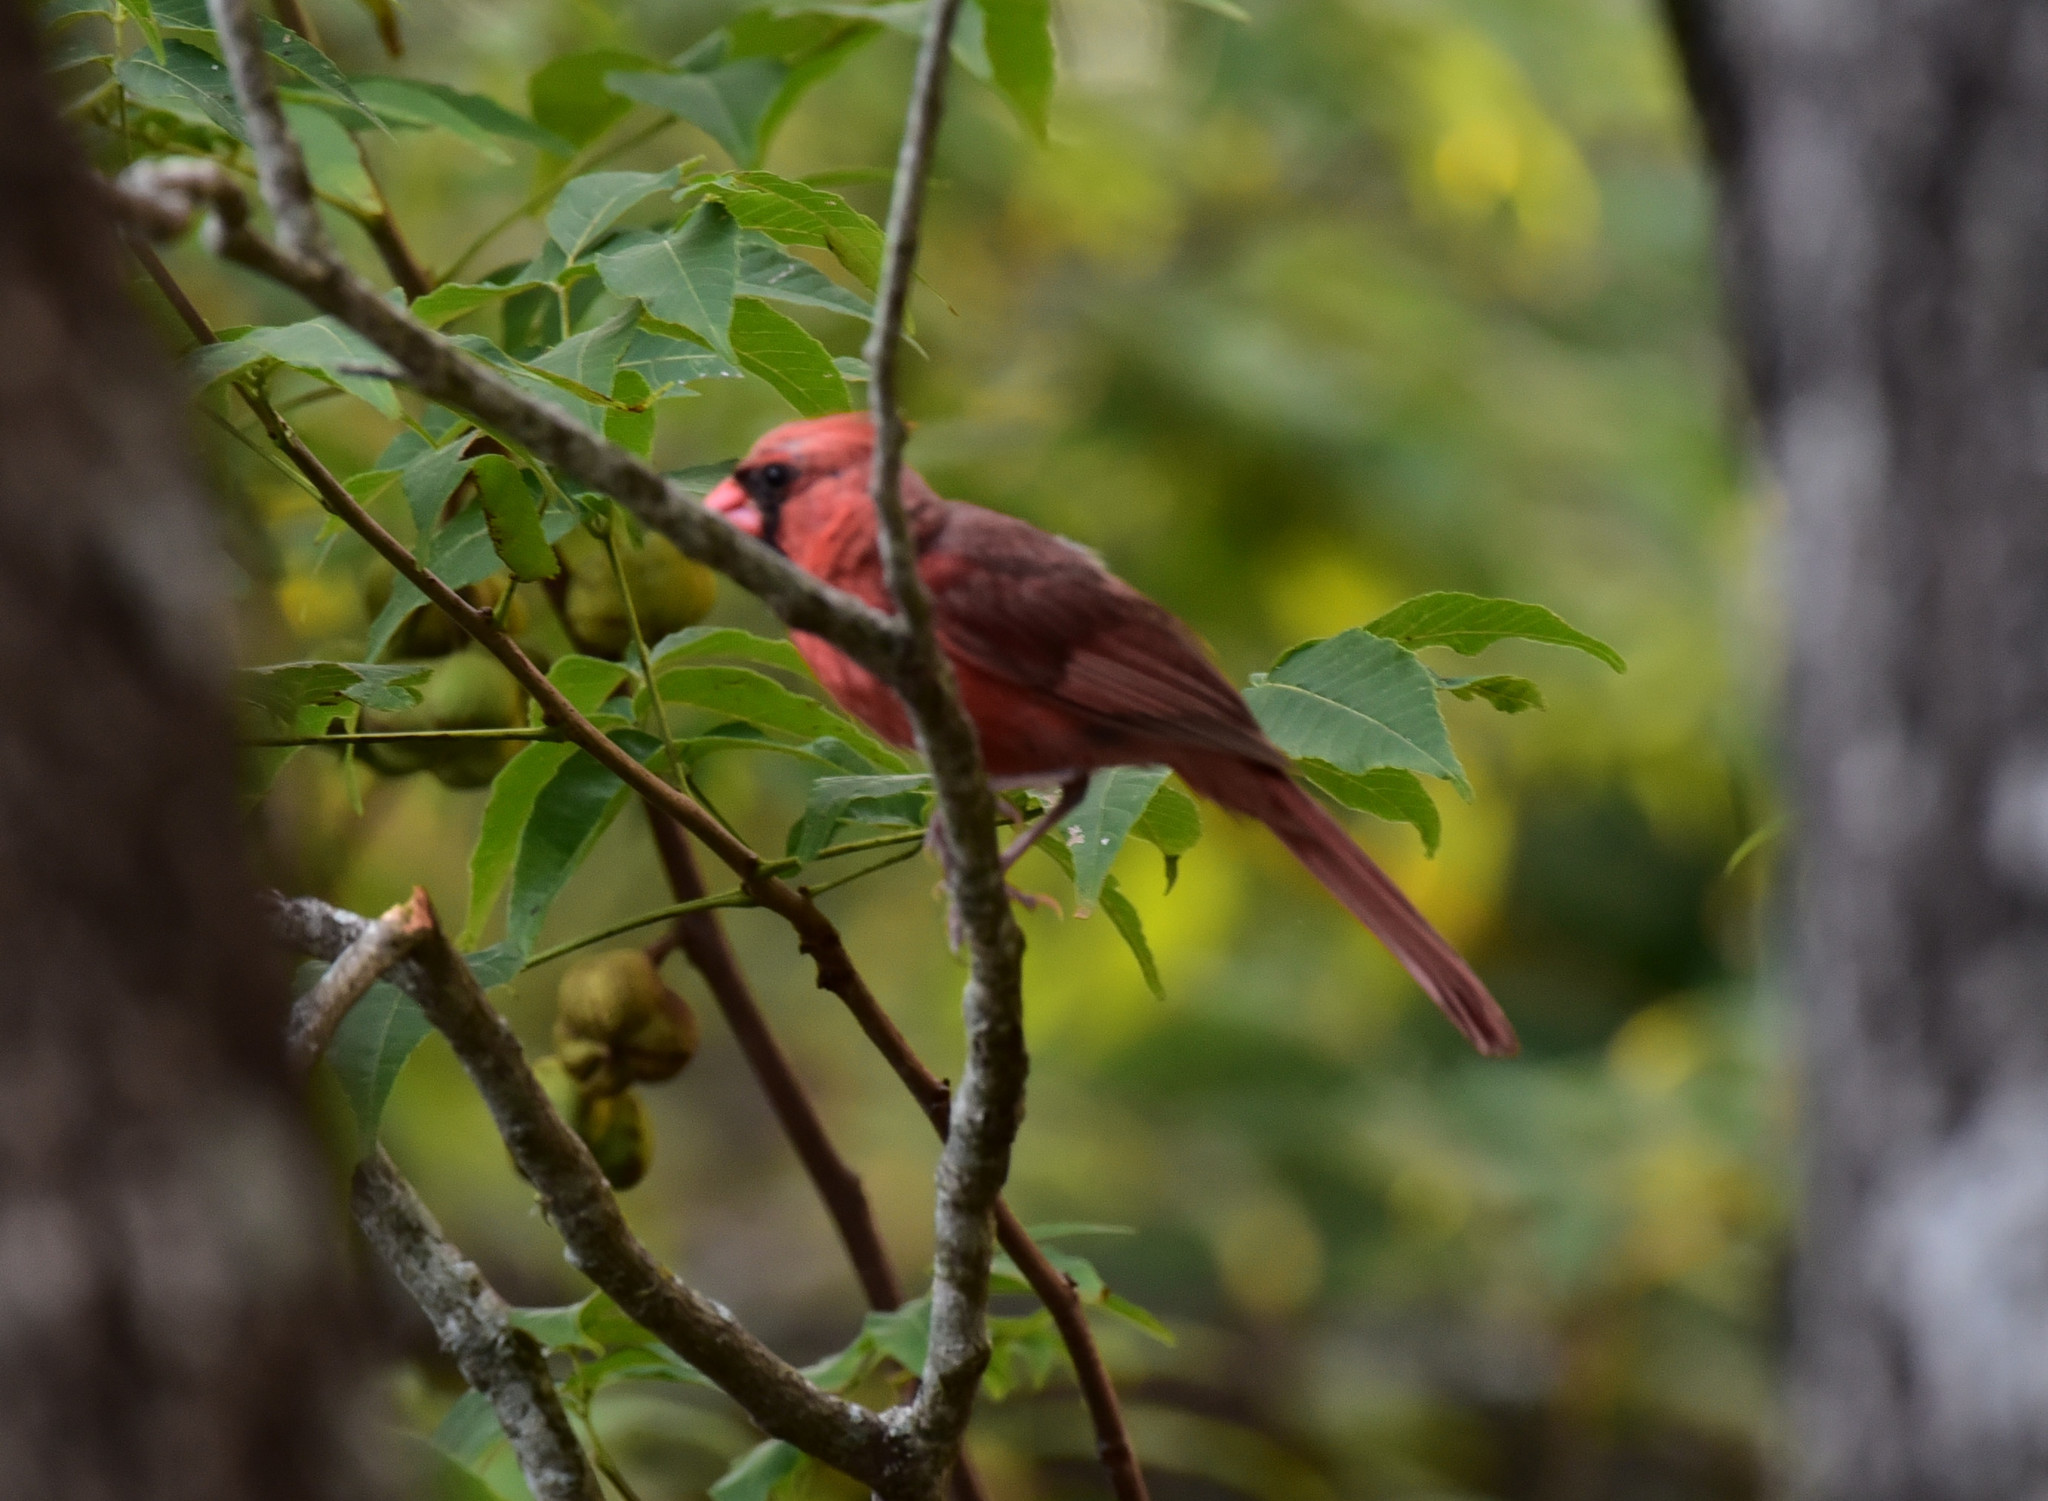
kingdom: Animalia
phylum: Chordata
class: Aves
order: Passeriformes
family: Cardinalidae
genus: Cardinalis
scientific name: Cardinalis cardinalis
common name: Northern cardinal
